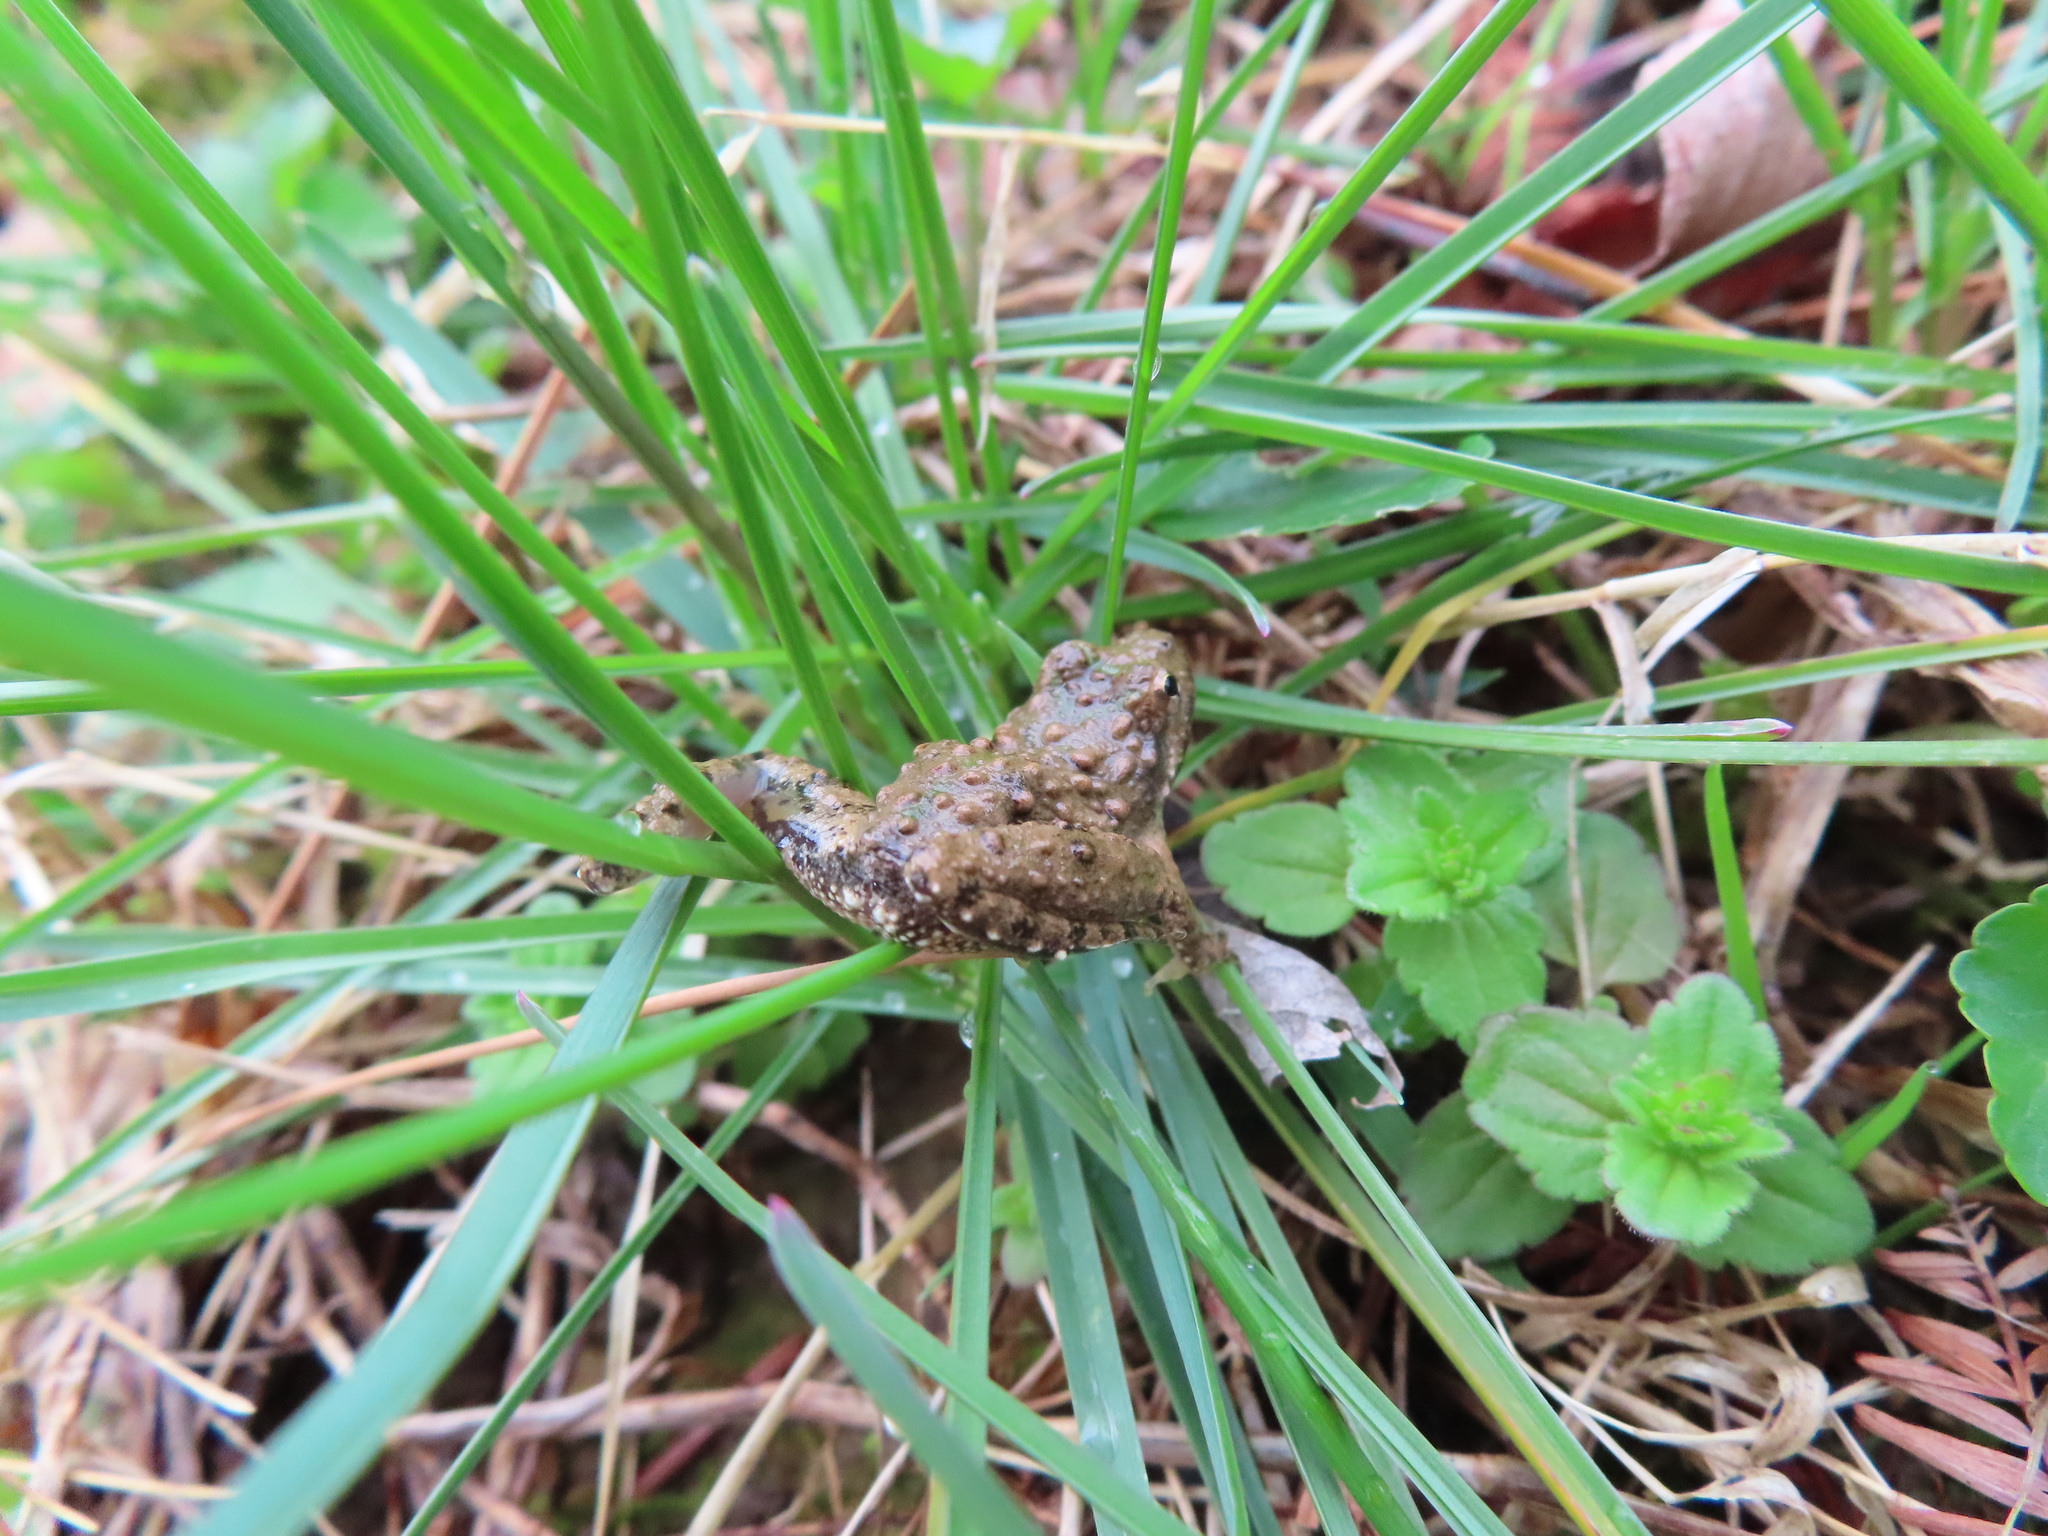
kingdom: Animalia
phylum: Chordata
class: Amphibia
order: Anura
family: Hylidae
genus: Acris
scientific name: Acris blanchardi
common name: Blanchard's cricket frog
